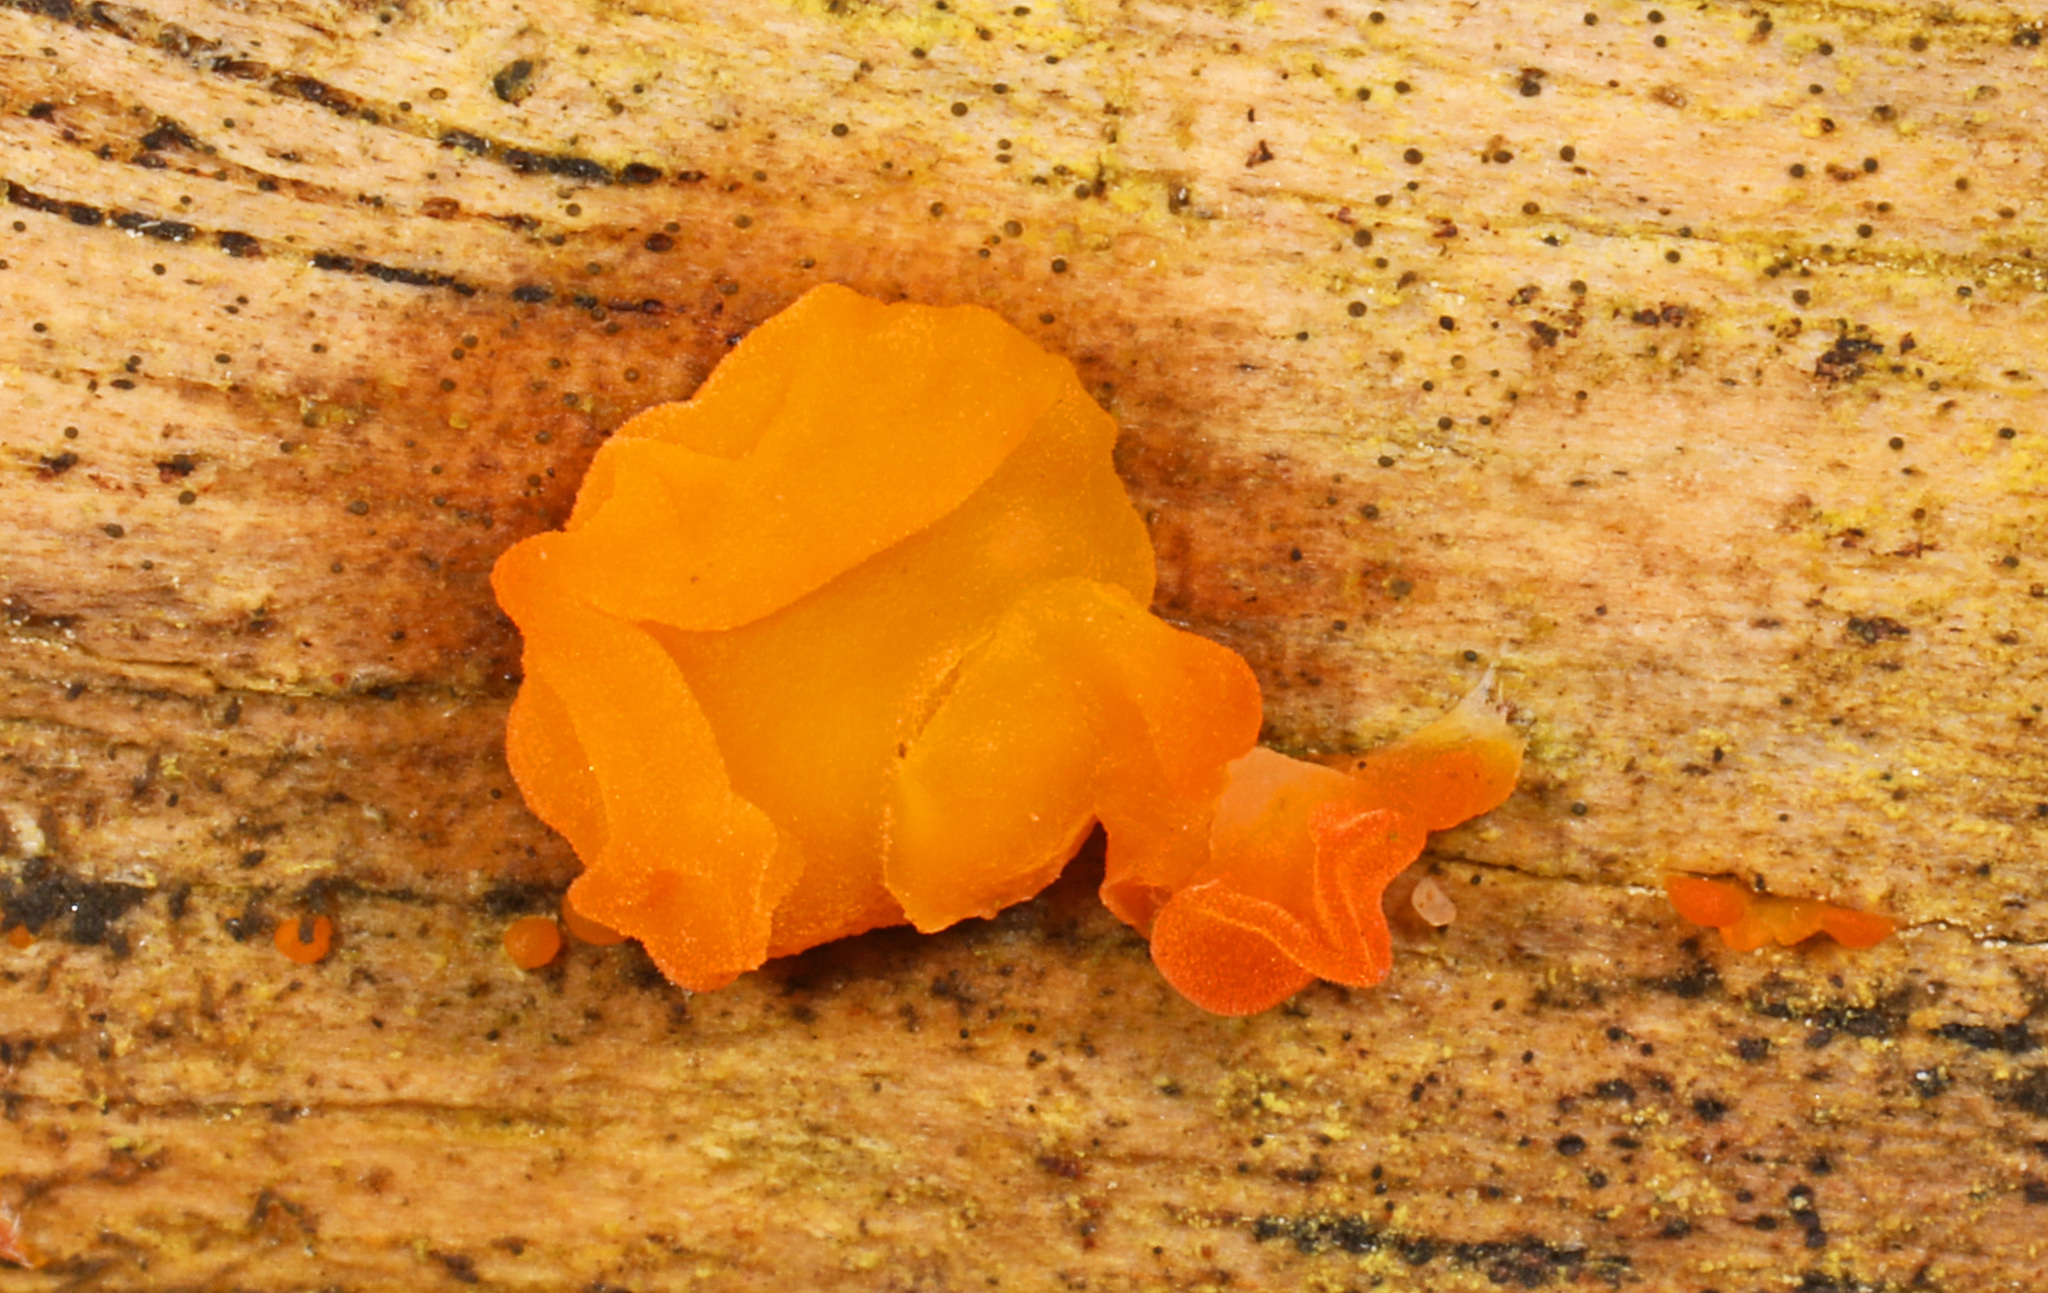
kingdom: Fungi
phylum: Basidiomycota
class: Dacrymycetes
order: Dacrymycetales
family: Dacrymycetaceae
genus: Dacrymyces
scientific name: Dacrymyces chrysospermus
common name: Orange jelly spot
